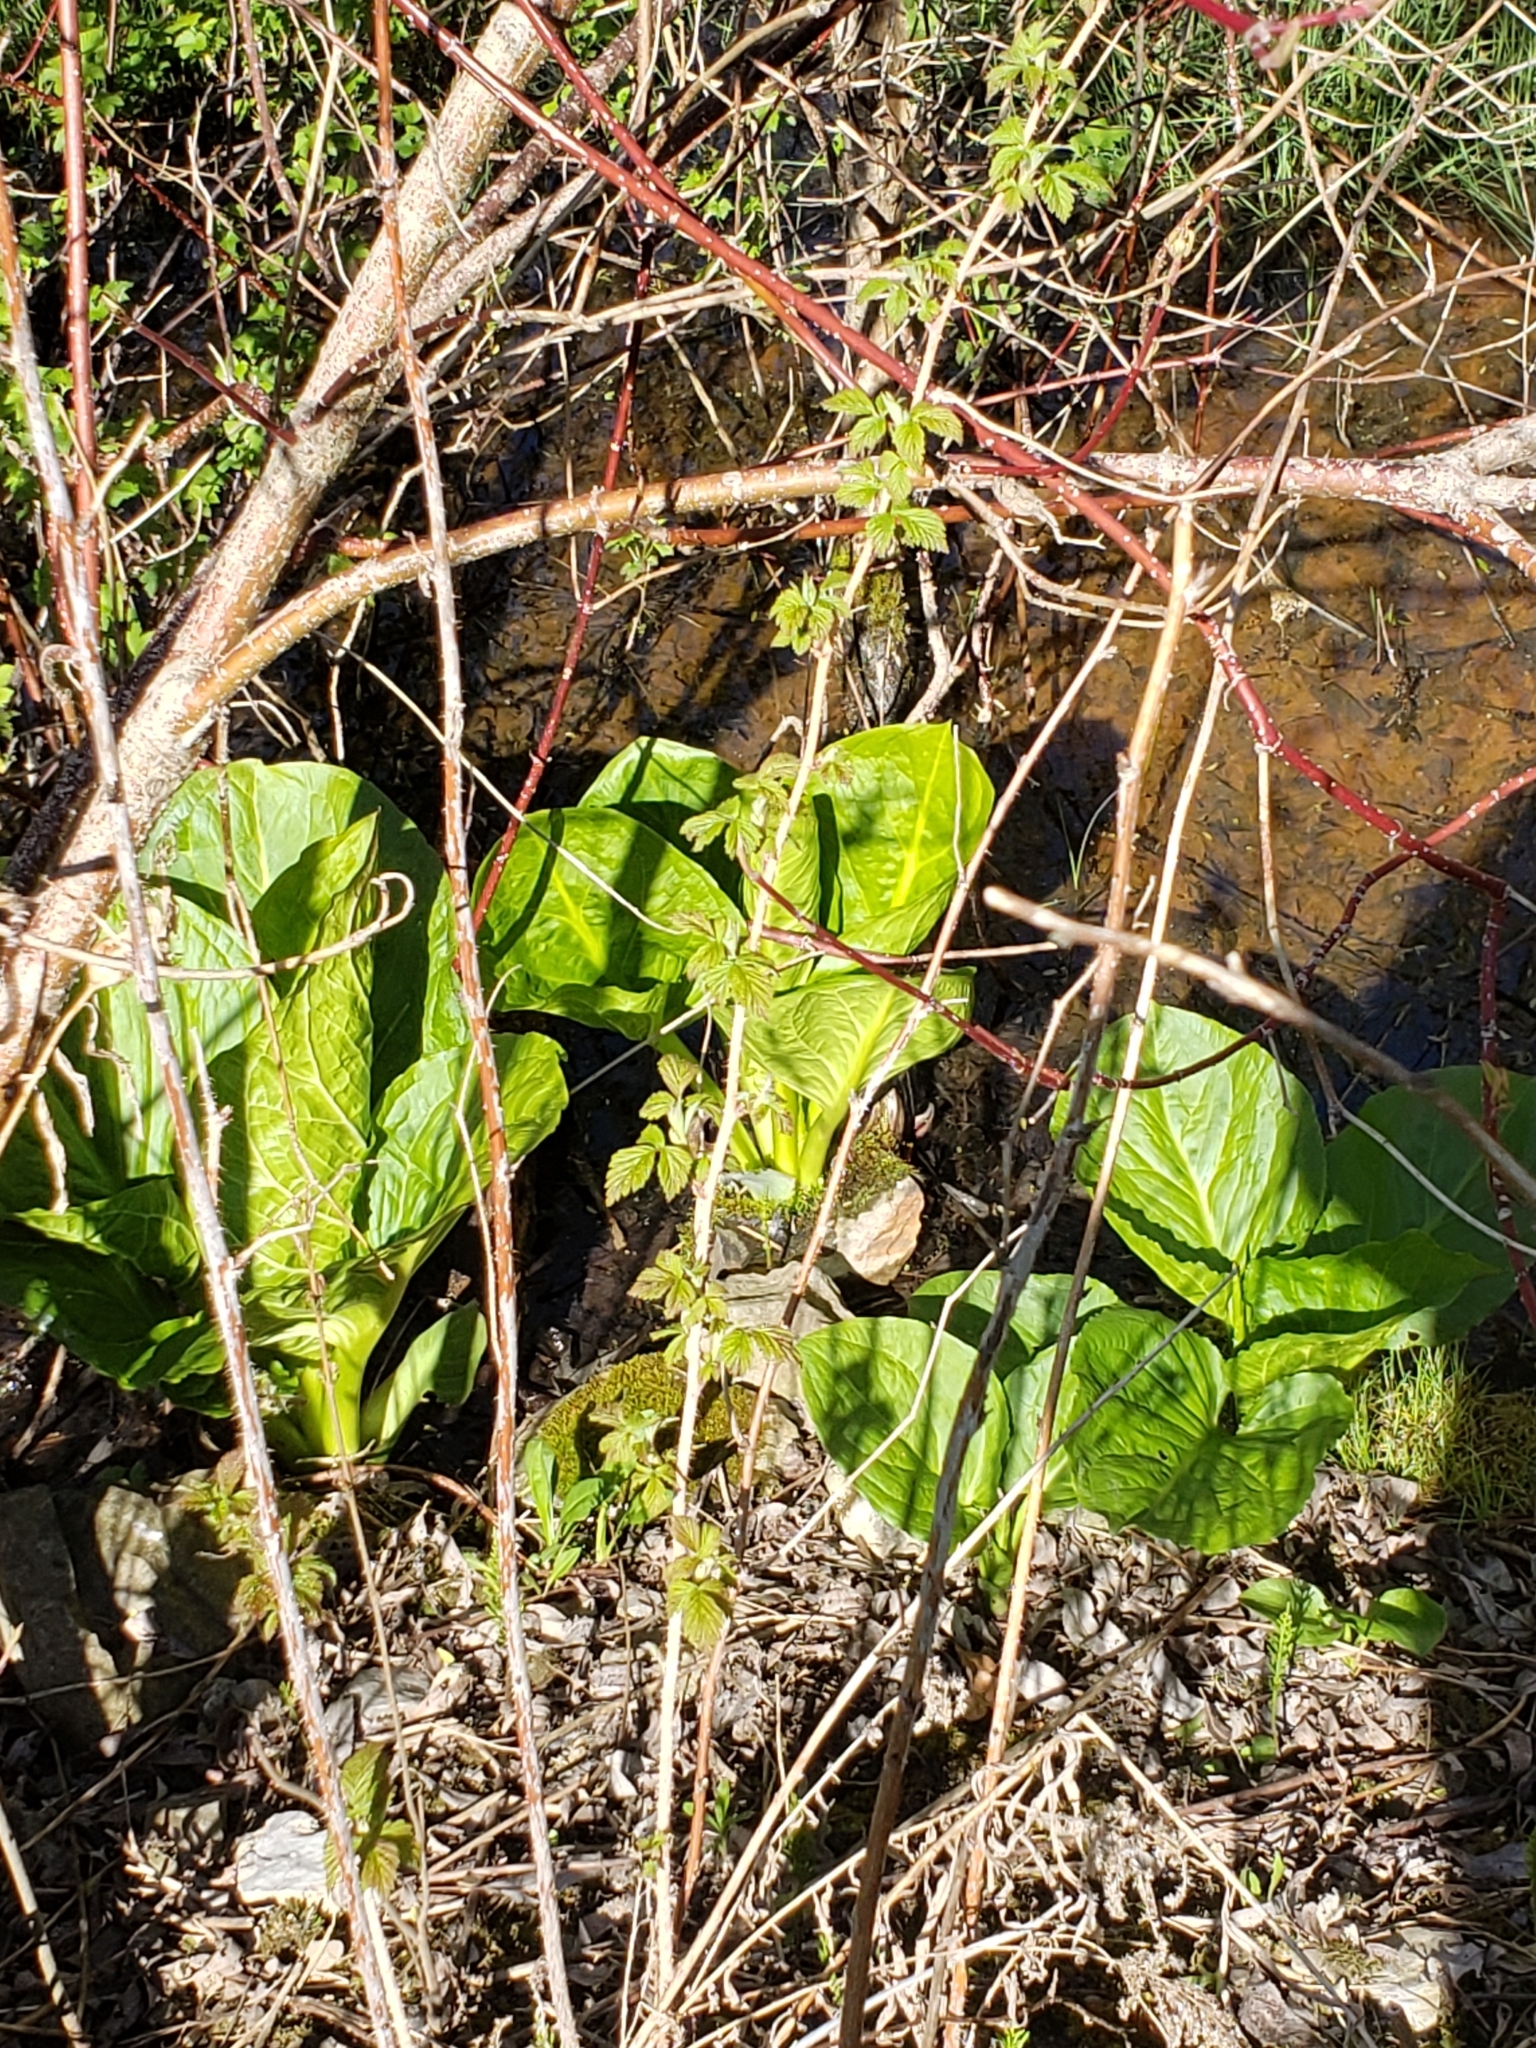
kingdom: Plantae
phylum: Tracheophyta
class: Liliopsida
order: Alismatales
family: Araceae
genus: Symplocarpus
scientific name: Symplocarpus foetidus
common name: Eastern skunk cabbage
